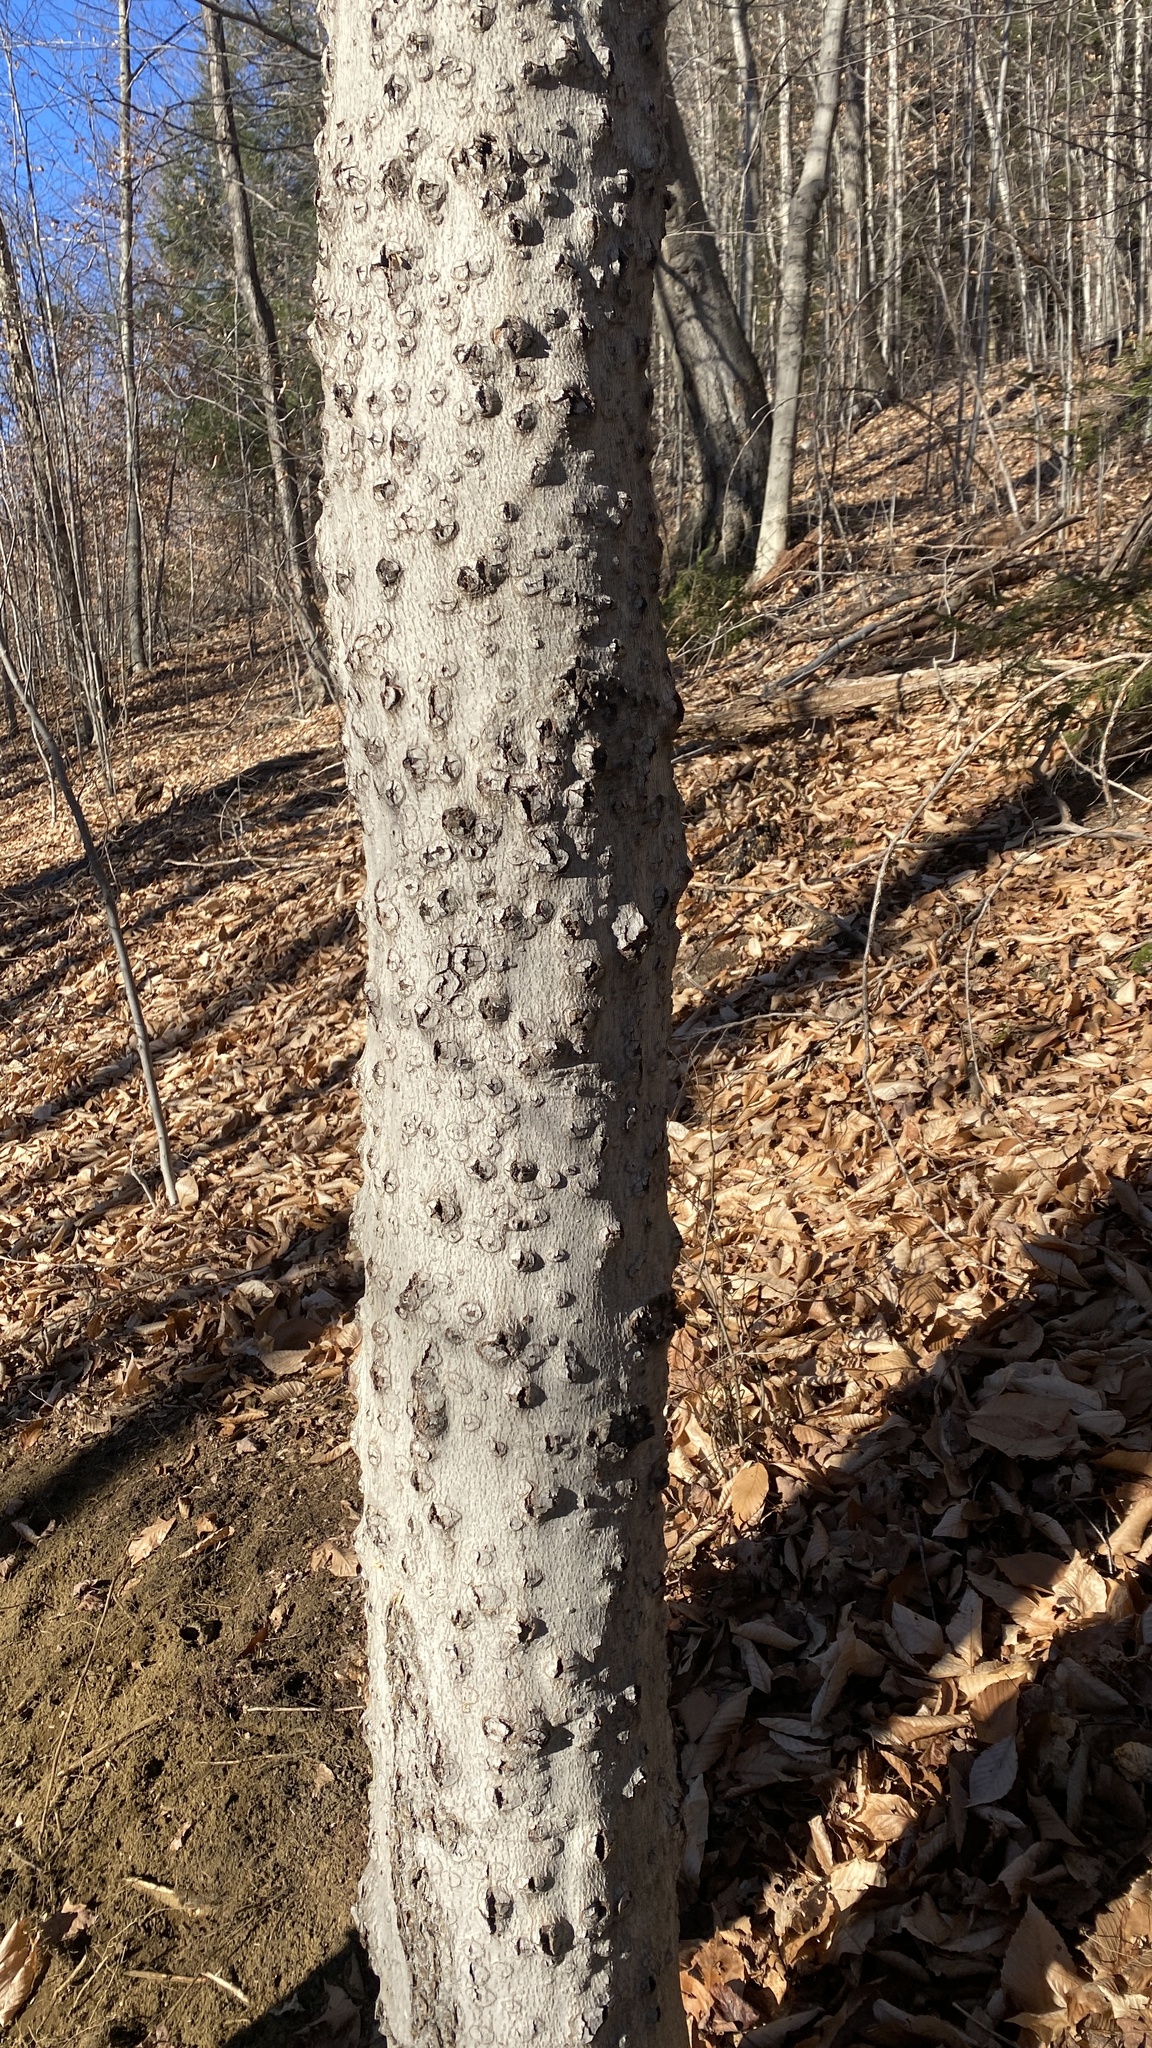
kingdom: Animalia
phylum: Arthropoda
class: Insecta
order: Hemiptera
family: Eriococcidae
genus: Cryptococcus
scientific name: Cryptococcus fagisuga
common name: Beech scale
